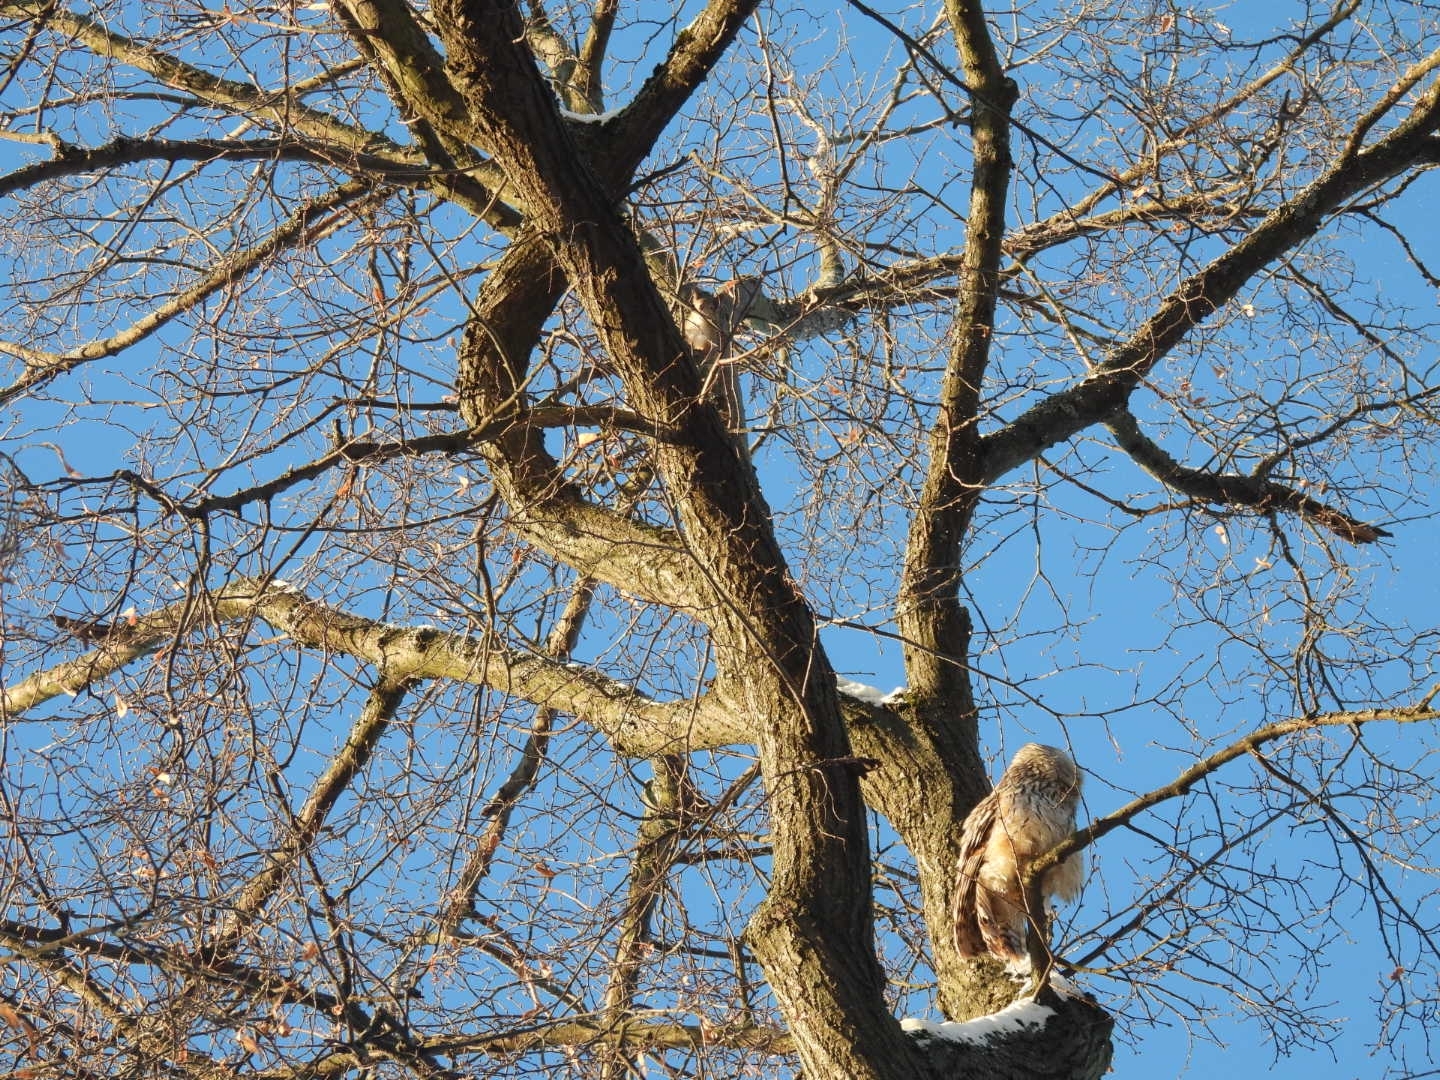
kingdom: Animalia
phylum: Chordata
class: Mammalia
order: Rodentia
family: Sciuridae
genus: Sciurus
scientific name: Sciurus vulgaris
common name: Eurasian red squirrel
